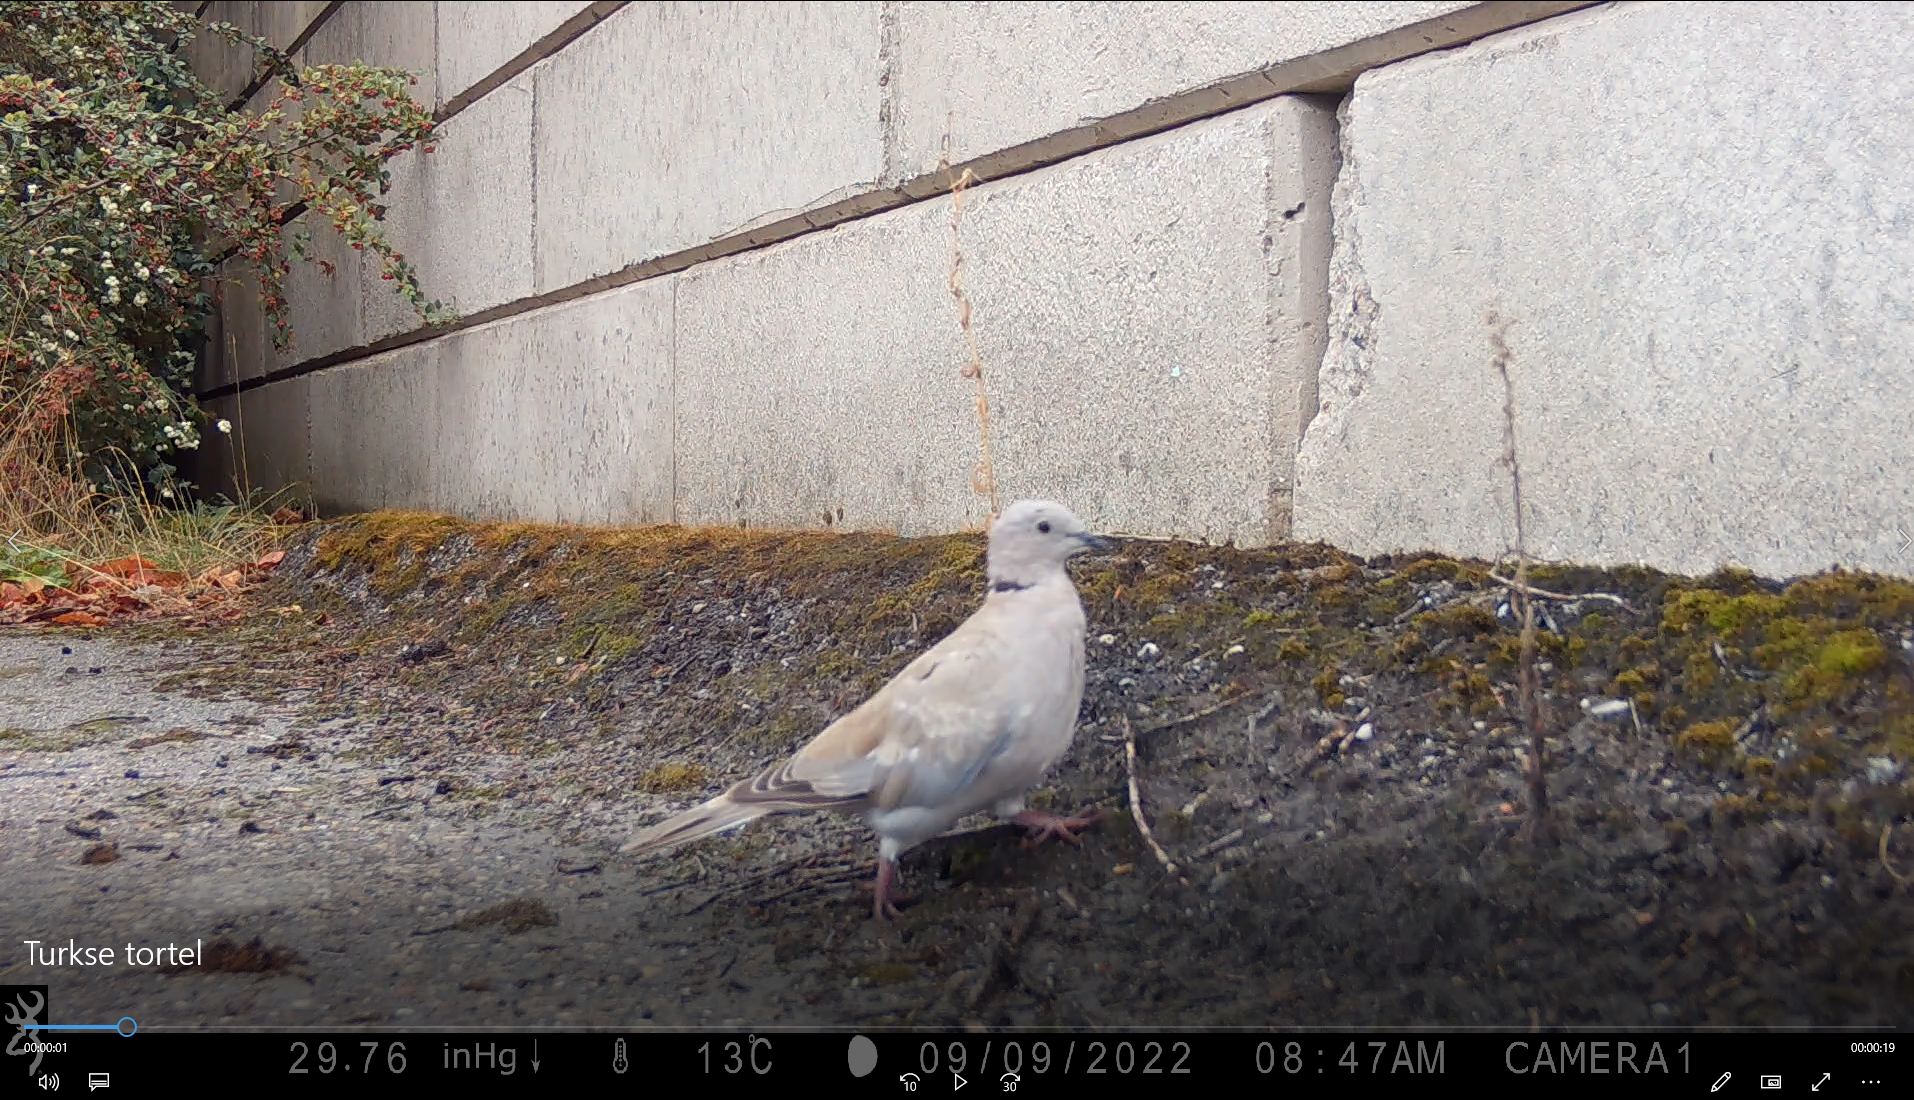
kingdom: Animalia
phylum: Chordata
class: Aves
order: Columbiformes
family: Columbidae
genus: Streptopelia
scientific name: Streptopelia decaocto
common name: Eurasian collared dove
